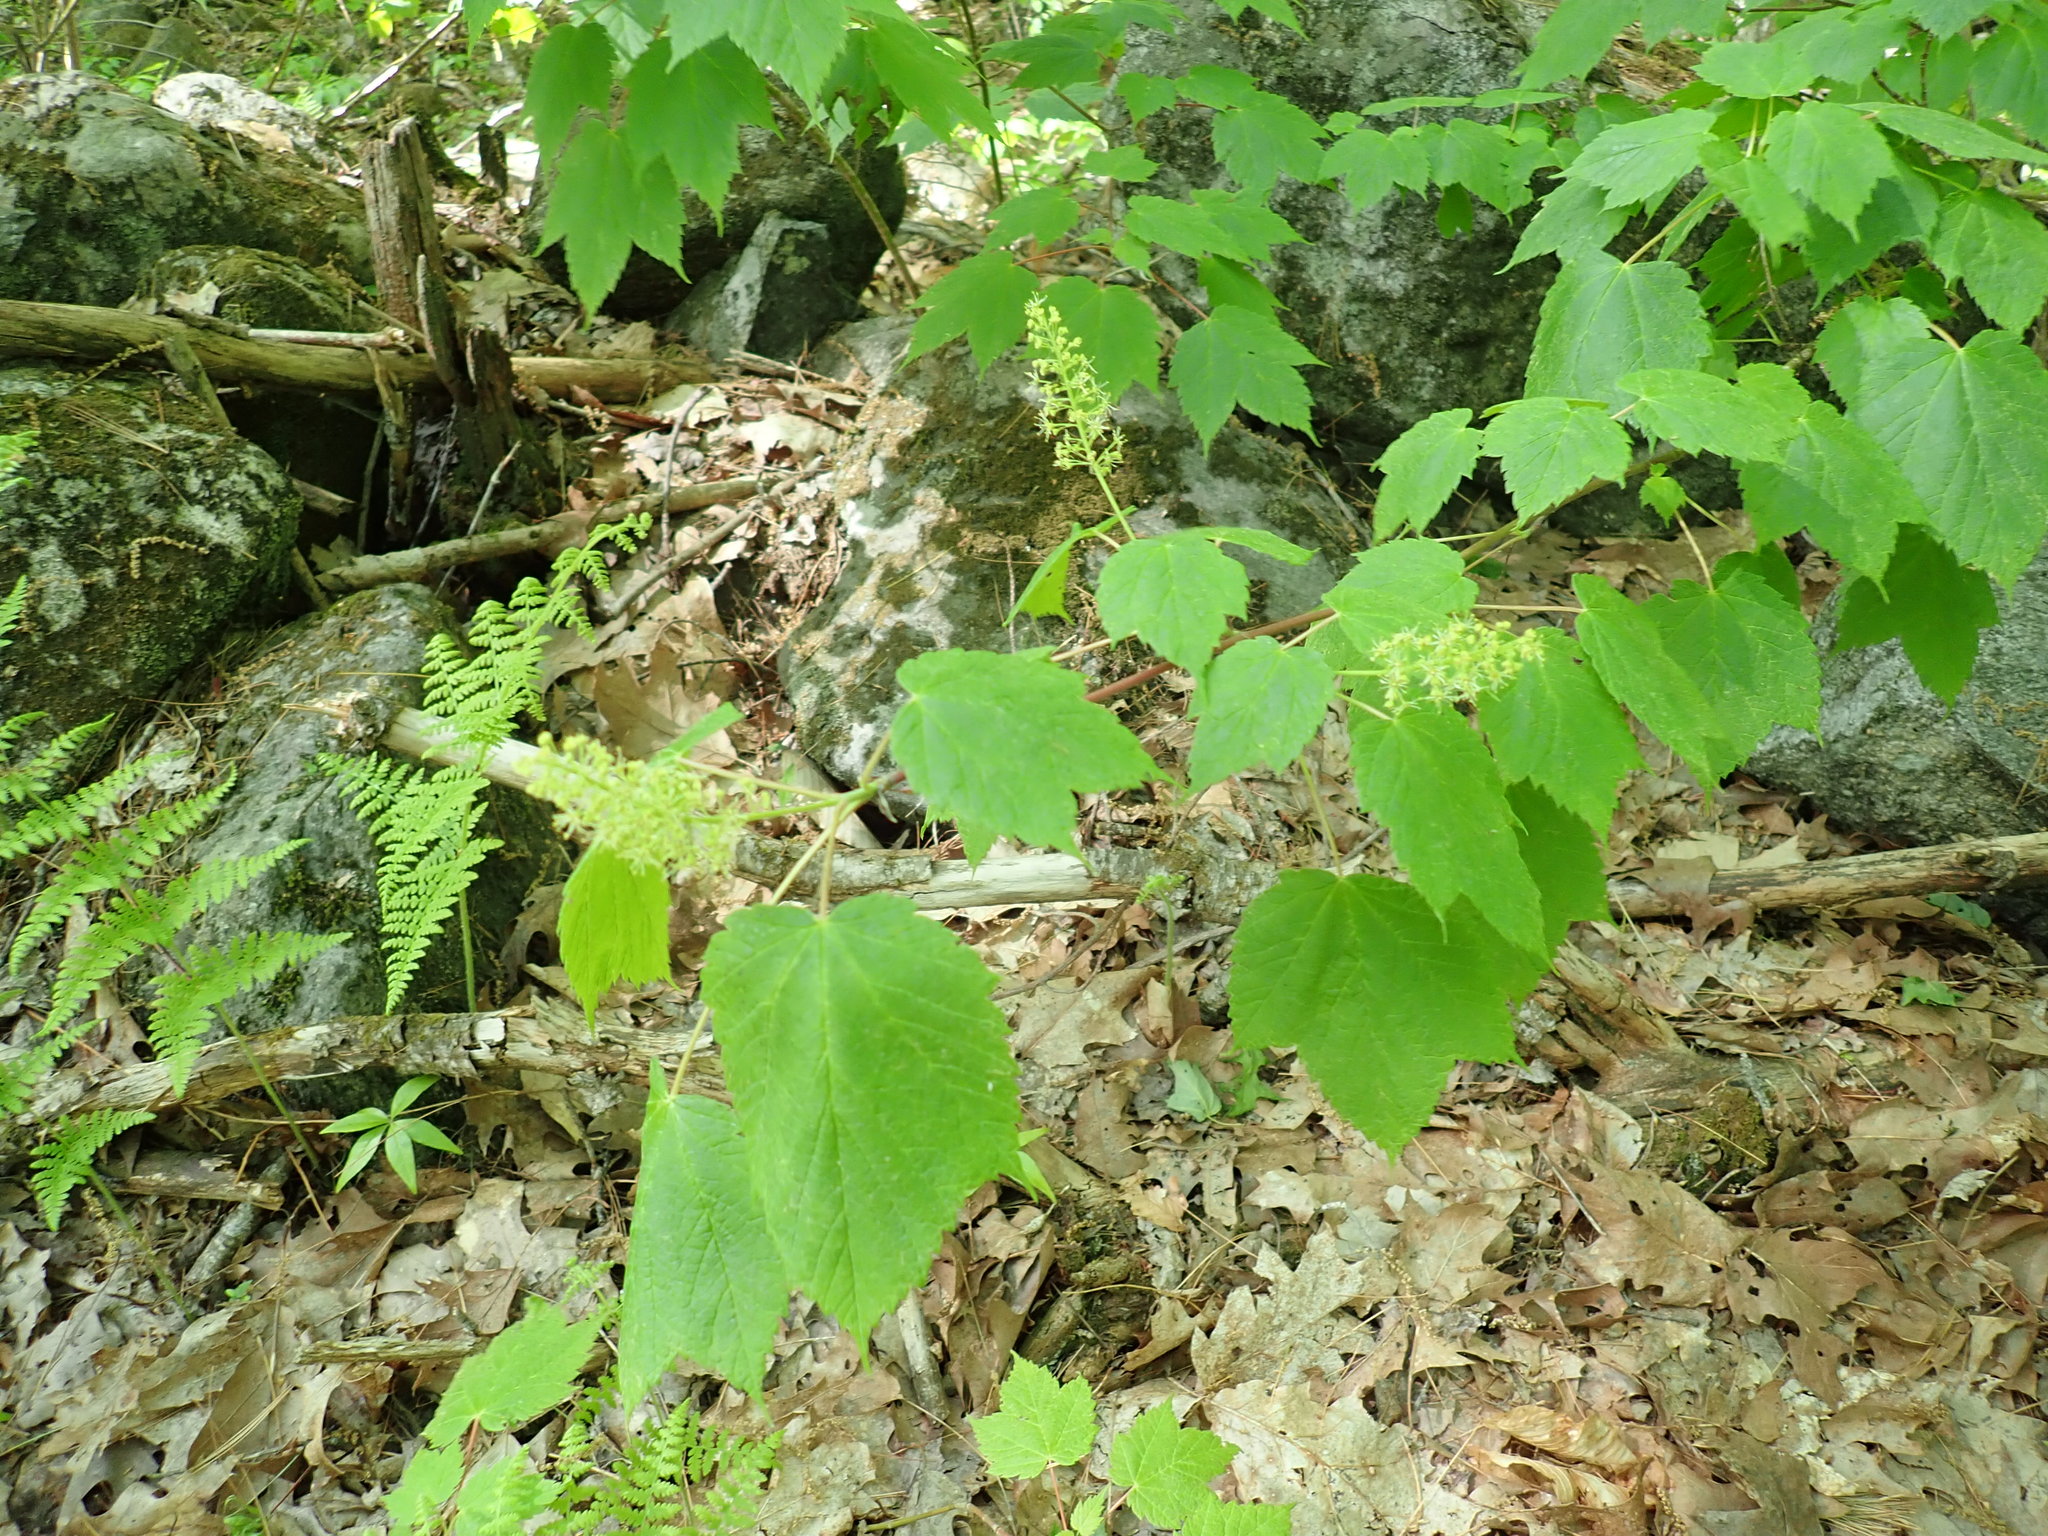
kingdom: Plantae
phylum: Tracheophyta
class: Magnoliopsida
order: Sapindales
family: Sapindaceae
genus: Acer
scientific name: Acer spicatum
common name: Mountain maple
